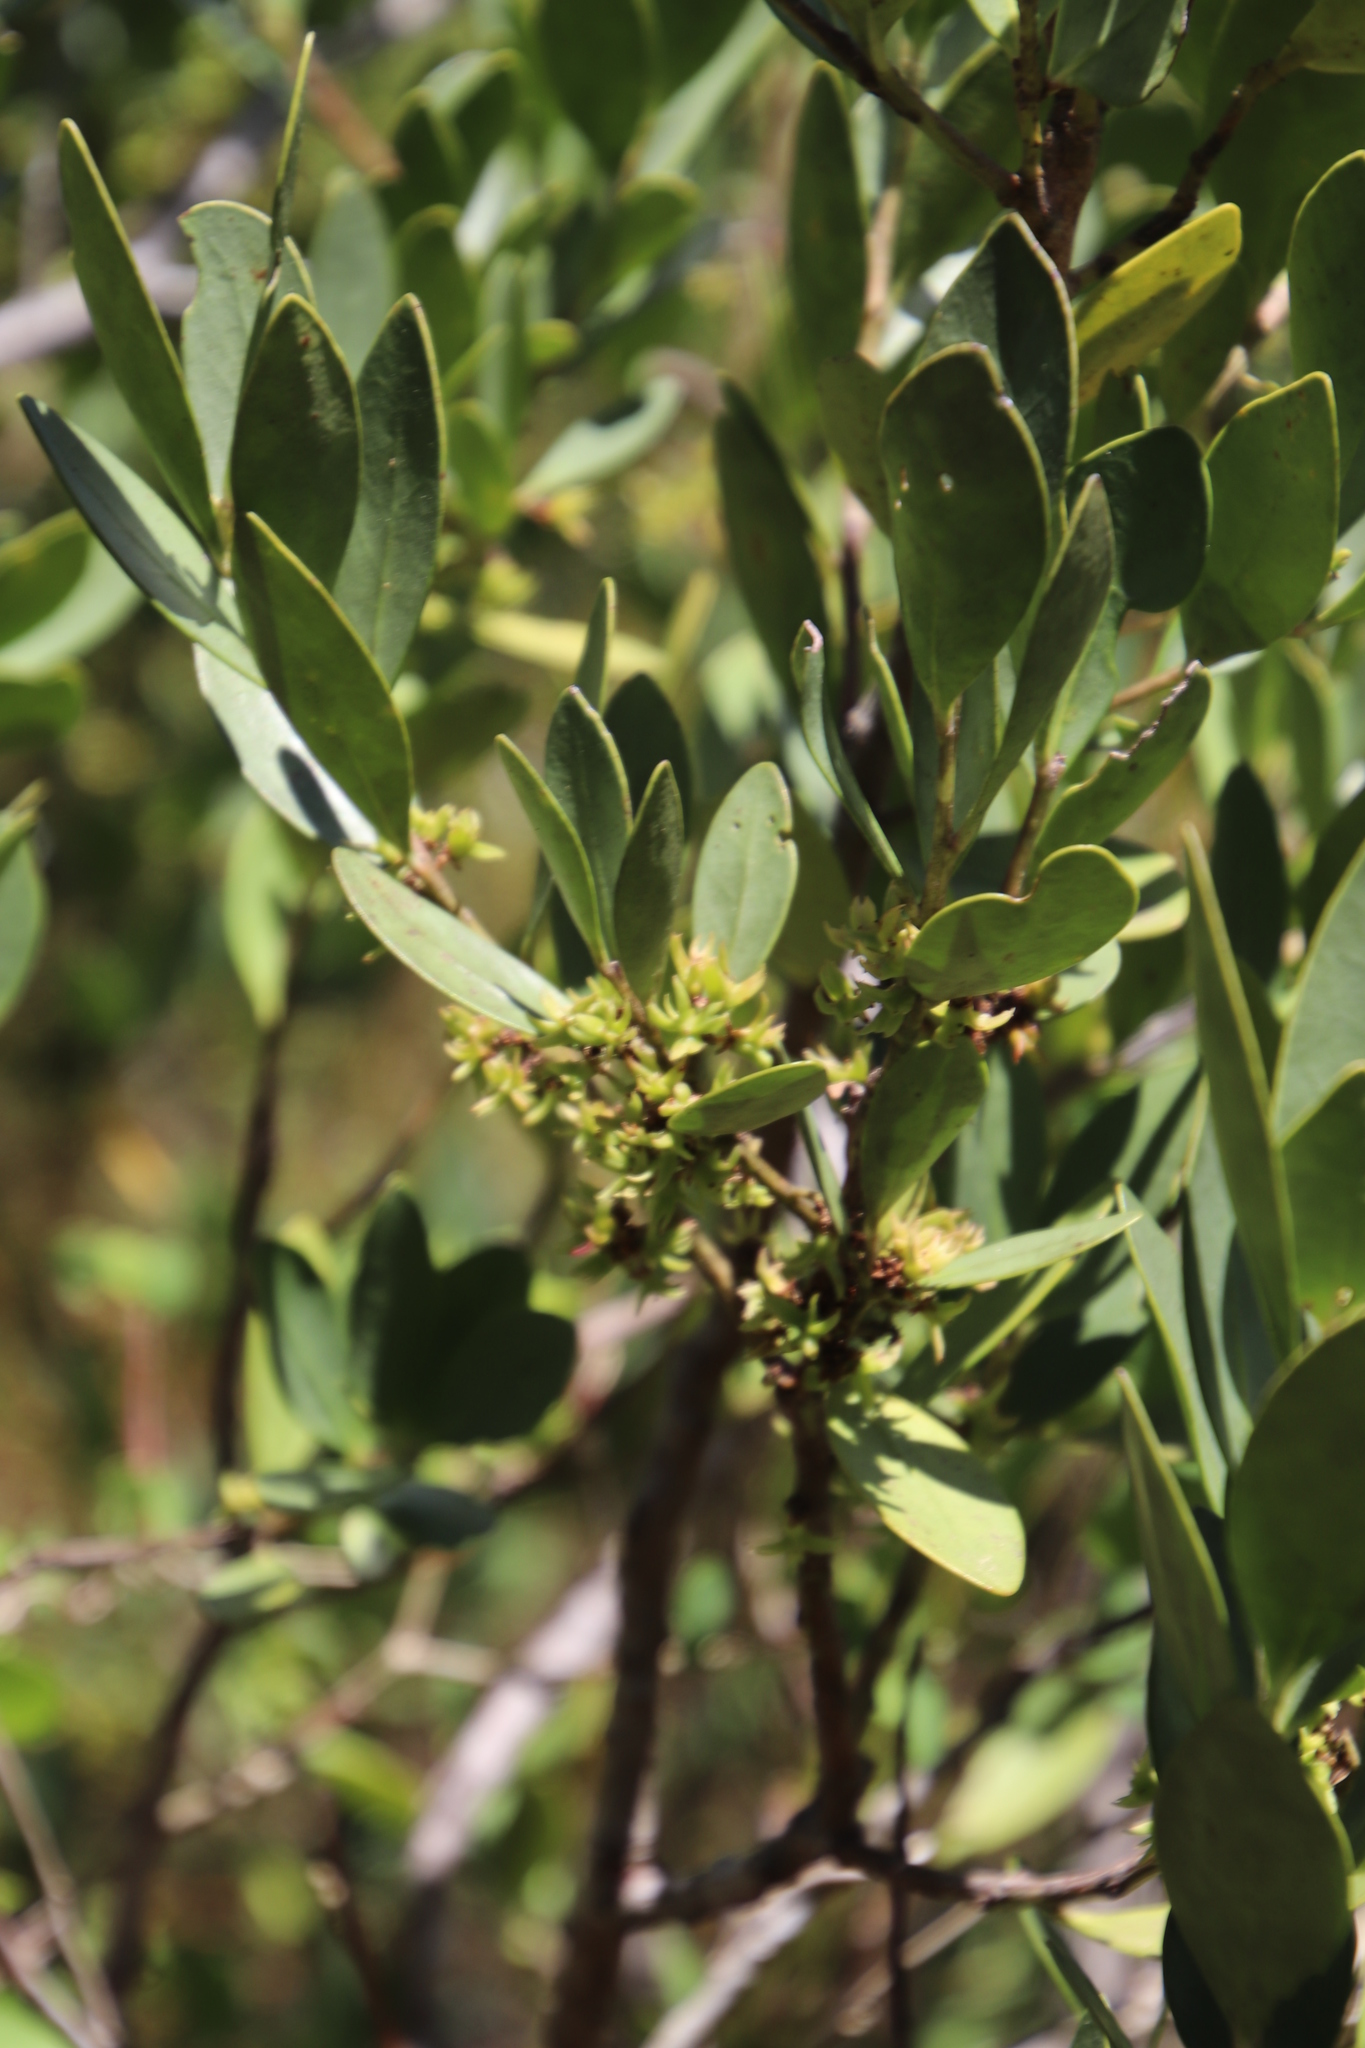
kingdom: Plantae
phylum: Tracheophyta
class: Magnoliopsida
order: Celastrales
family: Celastraceae
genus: Pterocelastrus
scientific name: Pterocelastrus tricuspidatus
